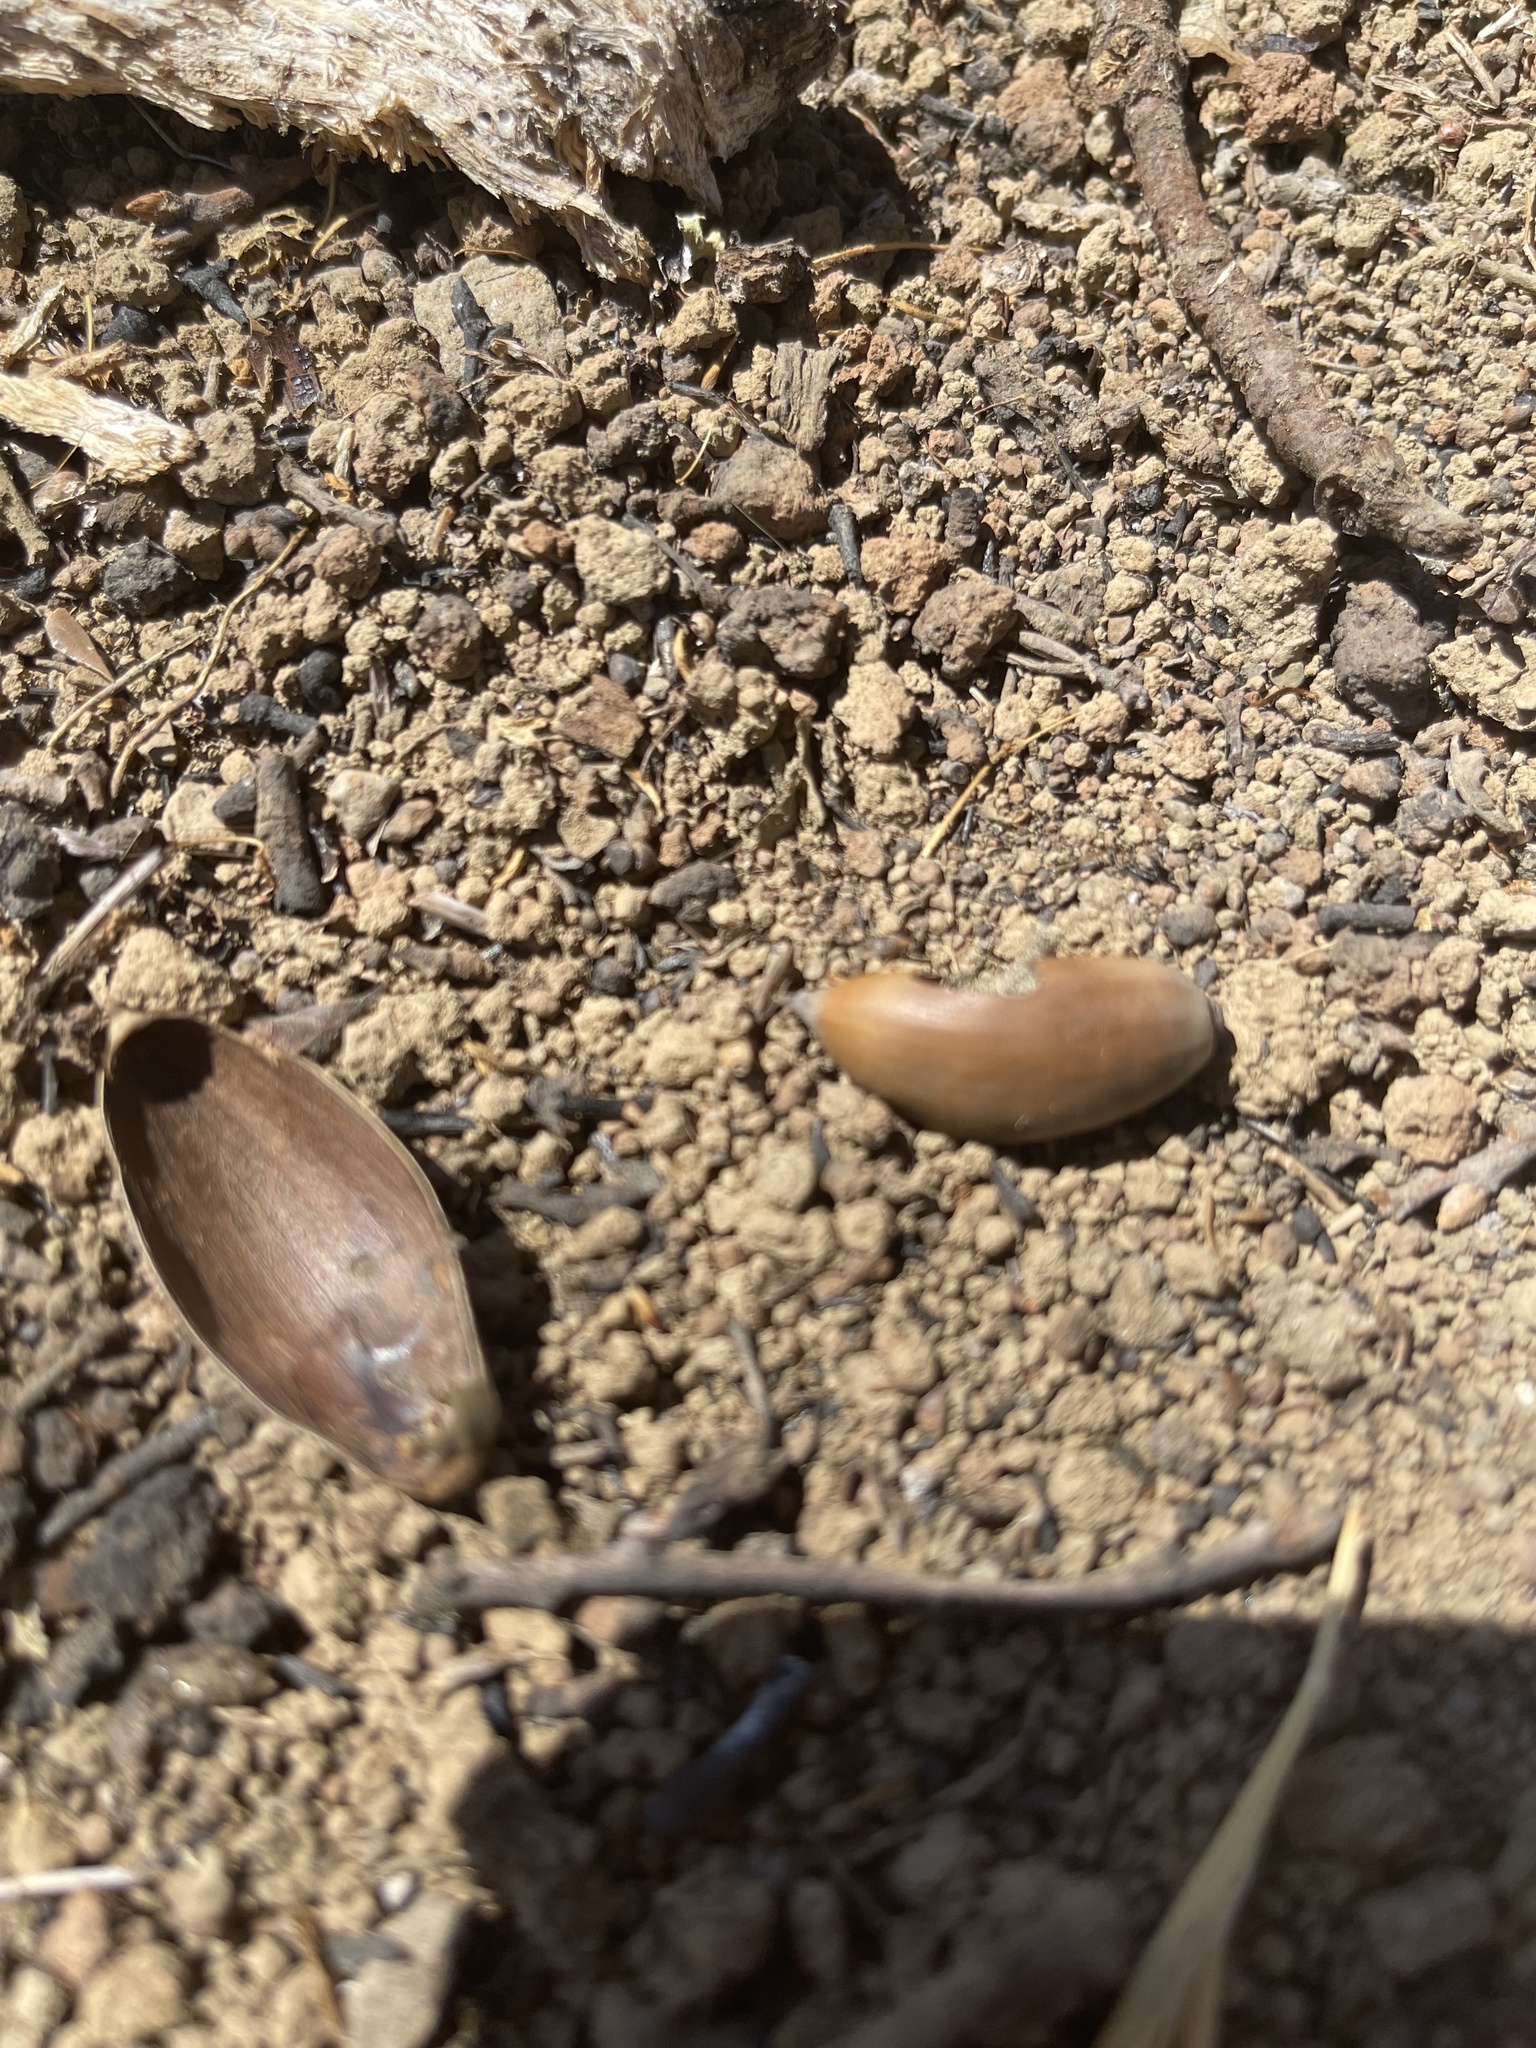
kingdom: Plantae
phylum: Tracheophyta
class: Magnoliopsida
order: Fagales
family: Fagaceae
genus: Quercus
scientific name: Quercus douglasii
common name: Blue oak
